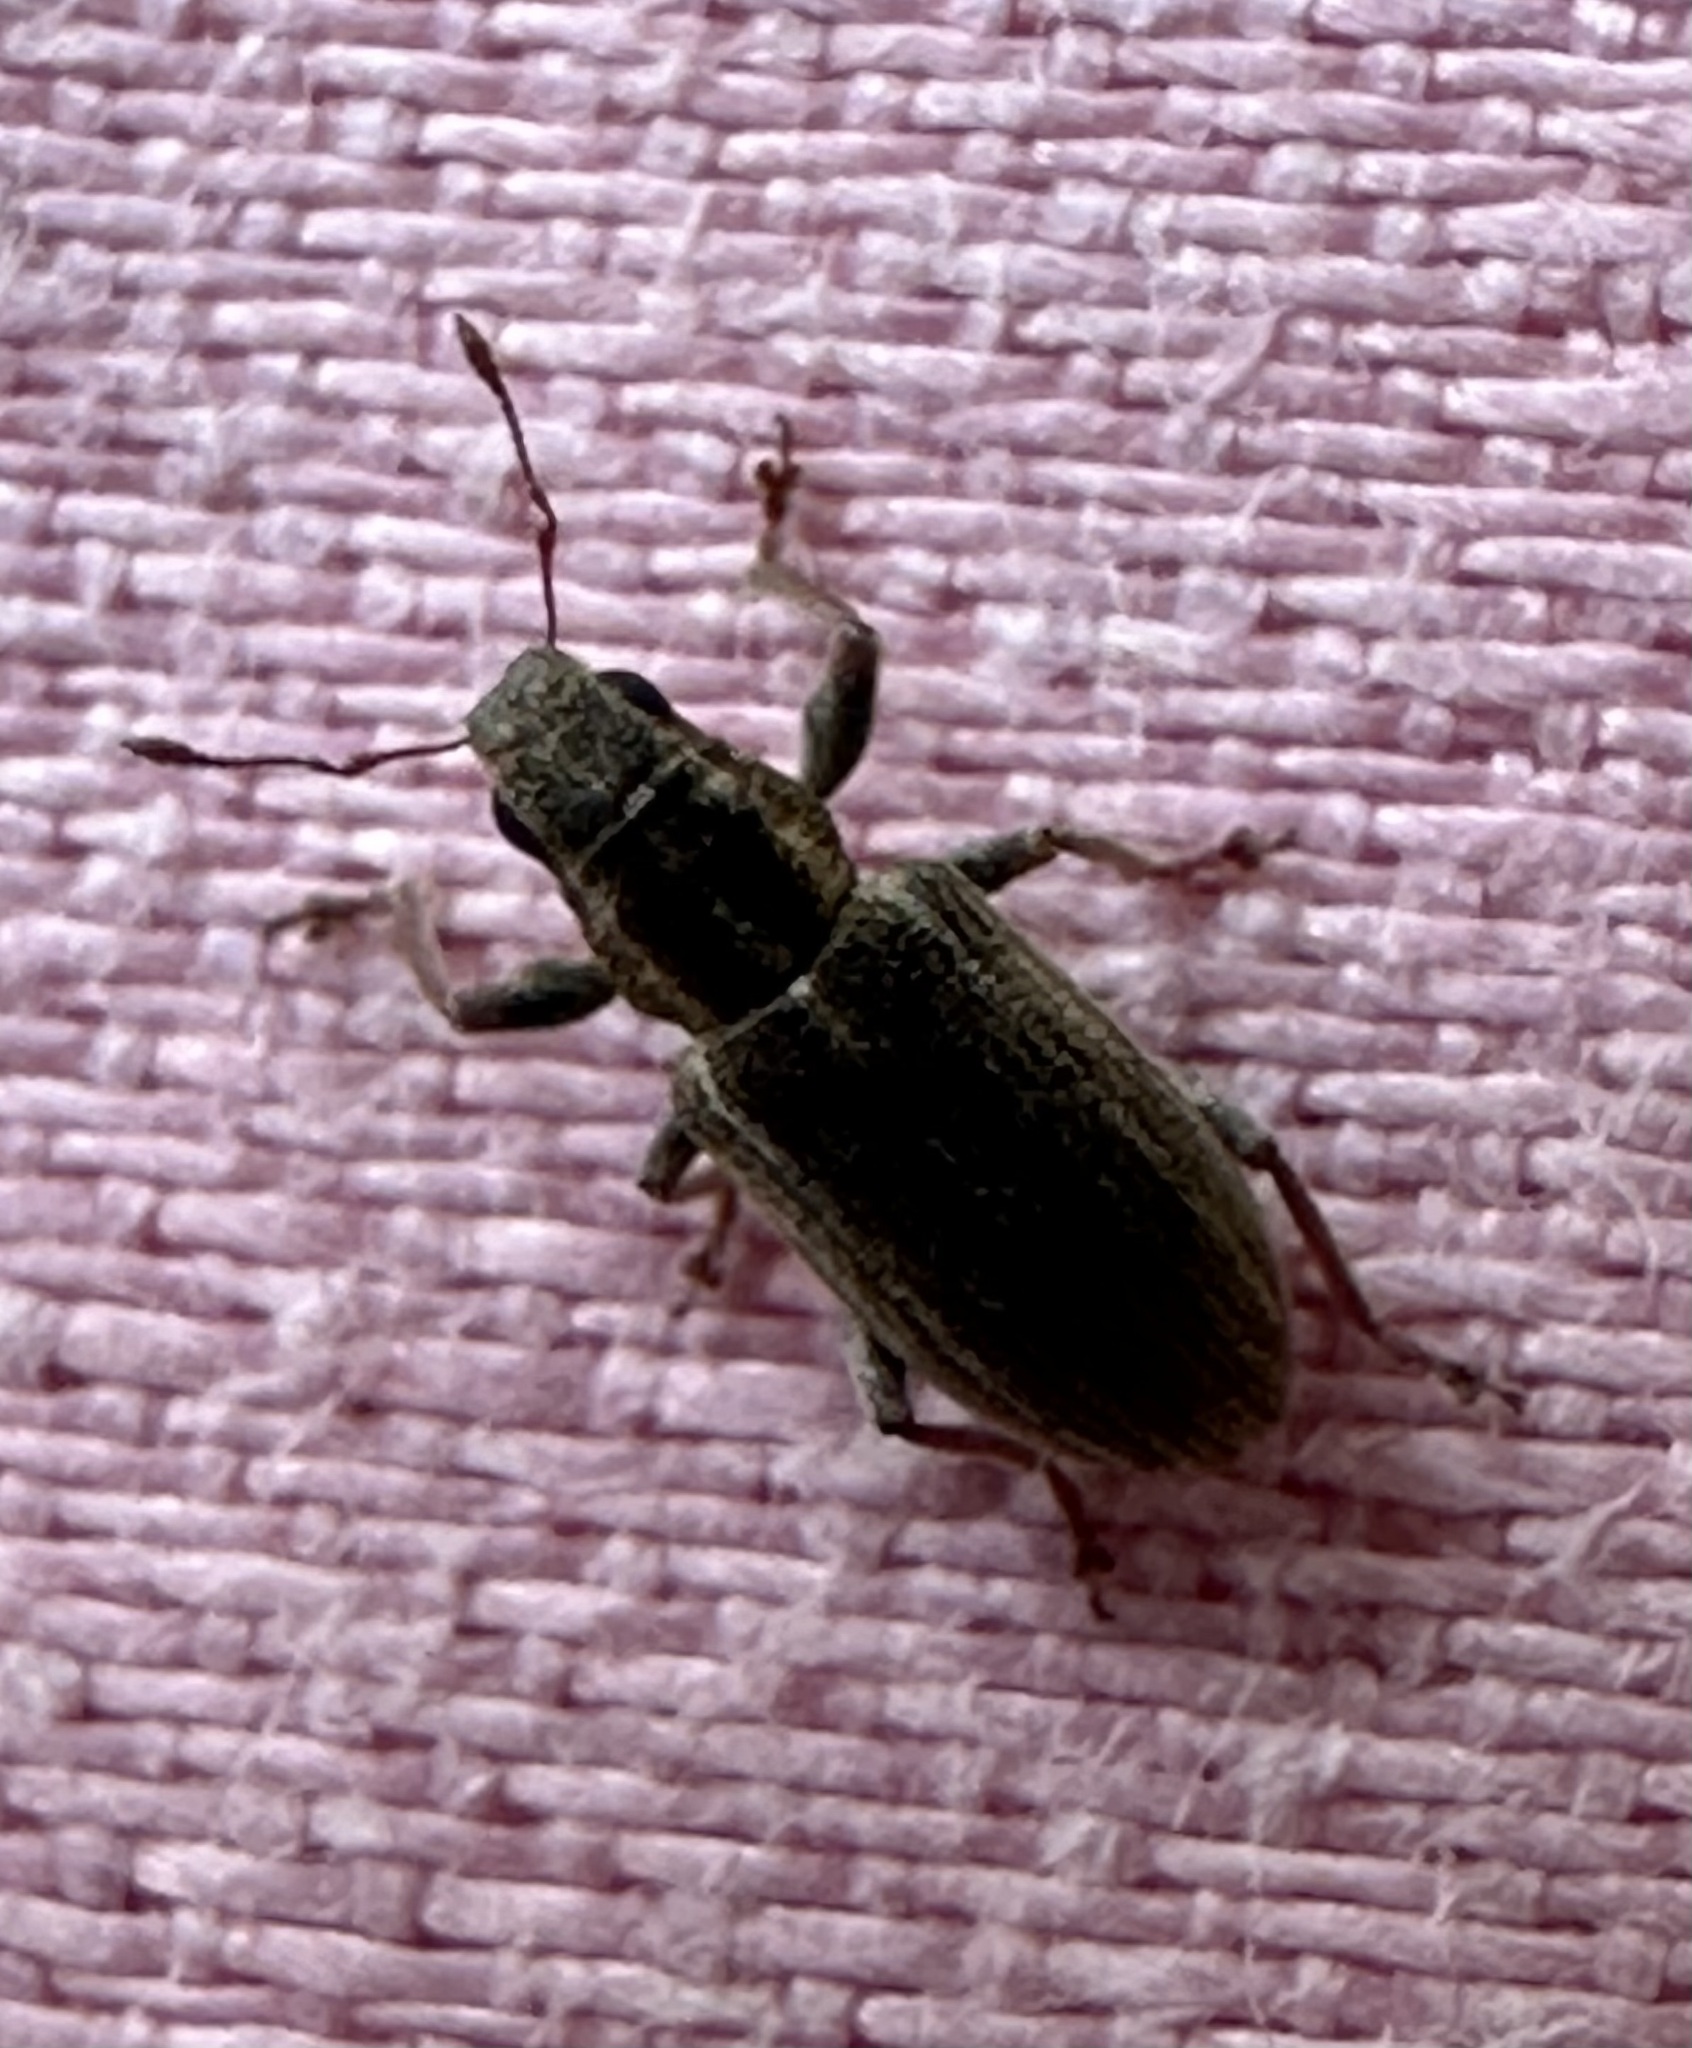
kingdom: Animalia
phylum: Arthropoda
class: Insecta
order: Coleoptera
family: Curculionidae
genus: Sitona
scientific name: Sitona lineatus
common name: Weevil
